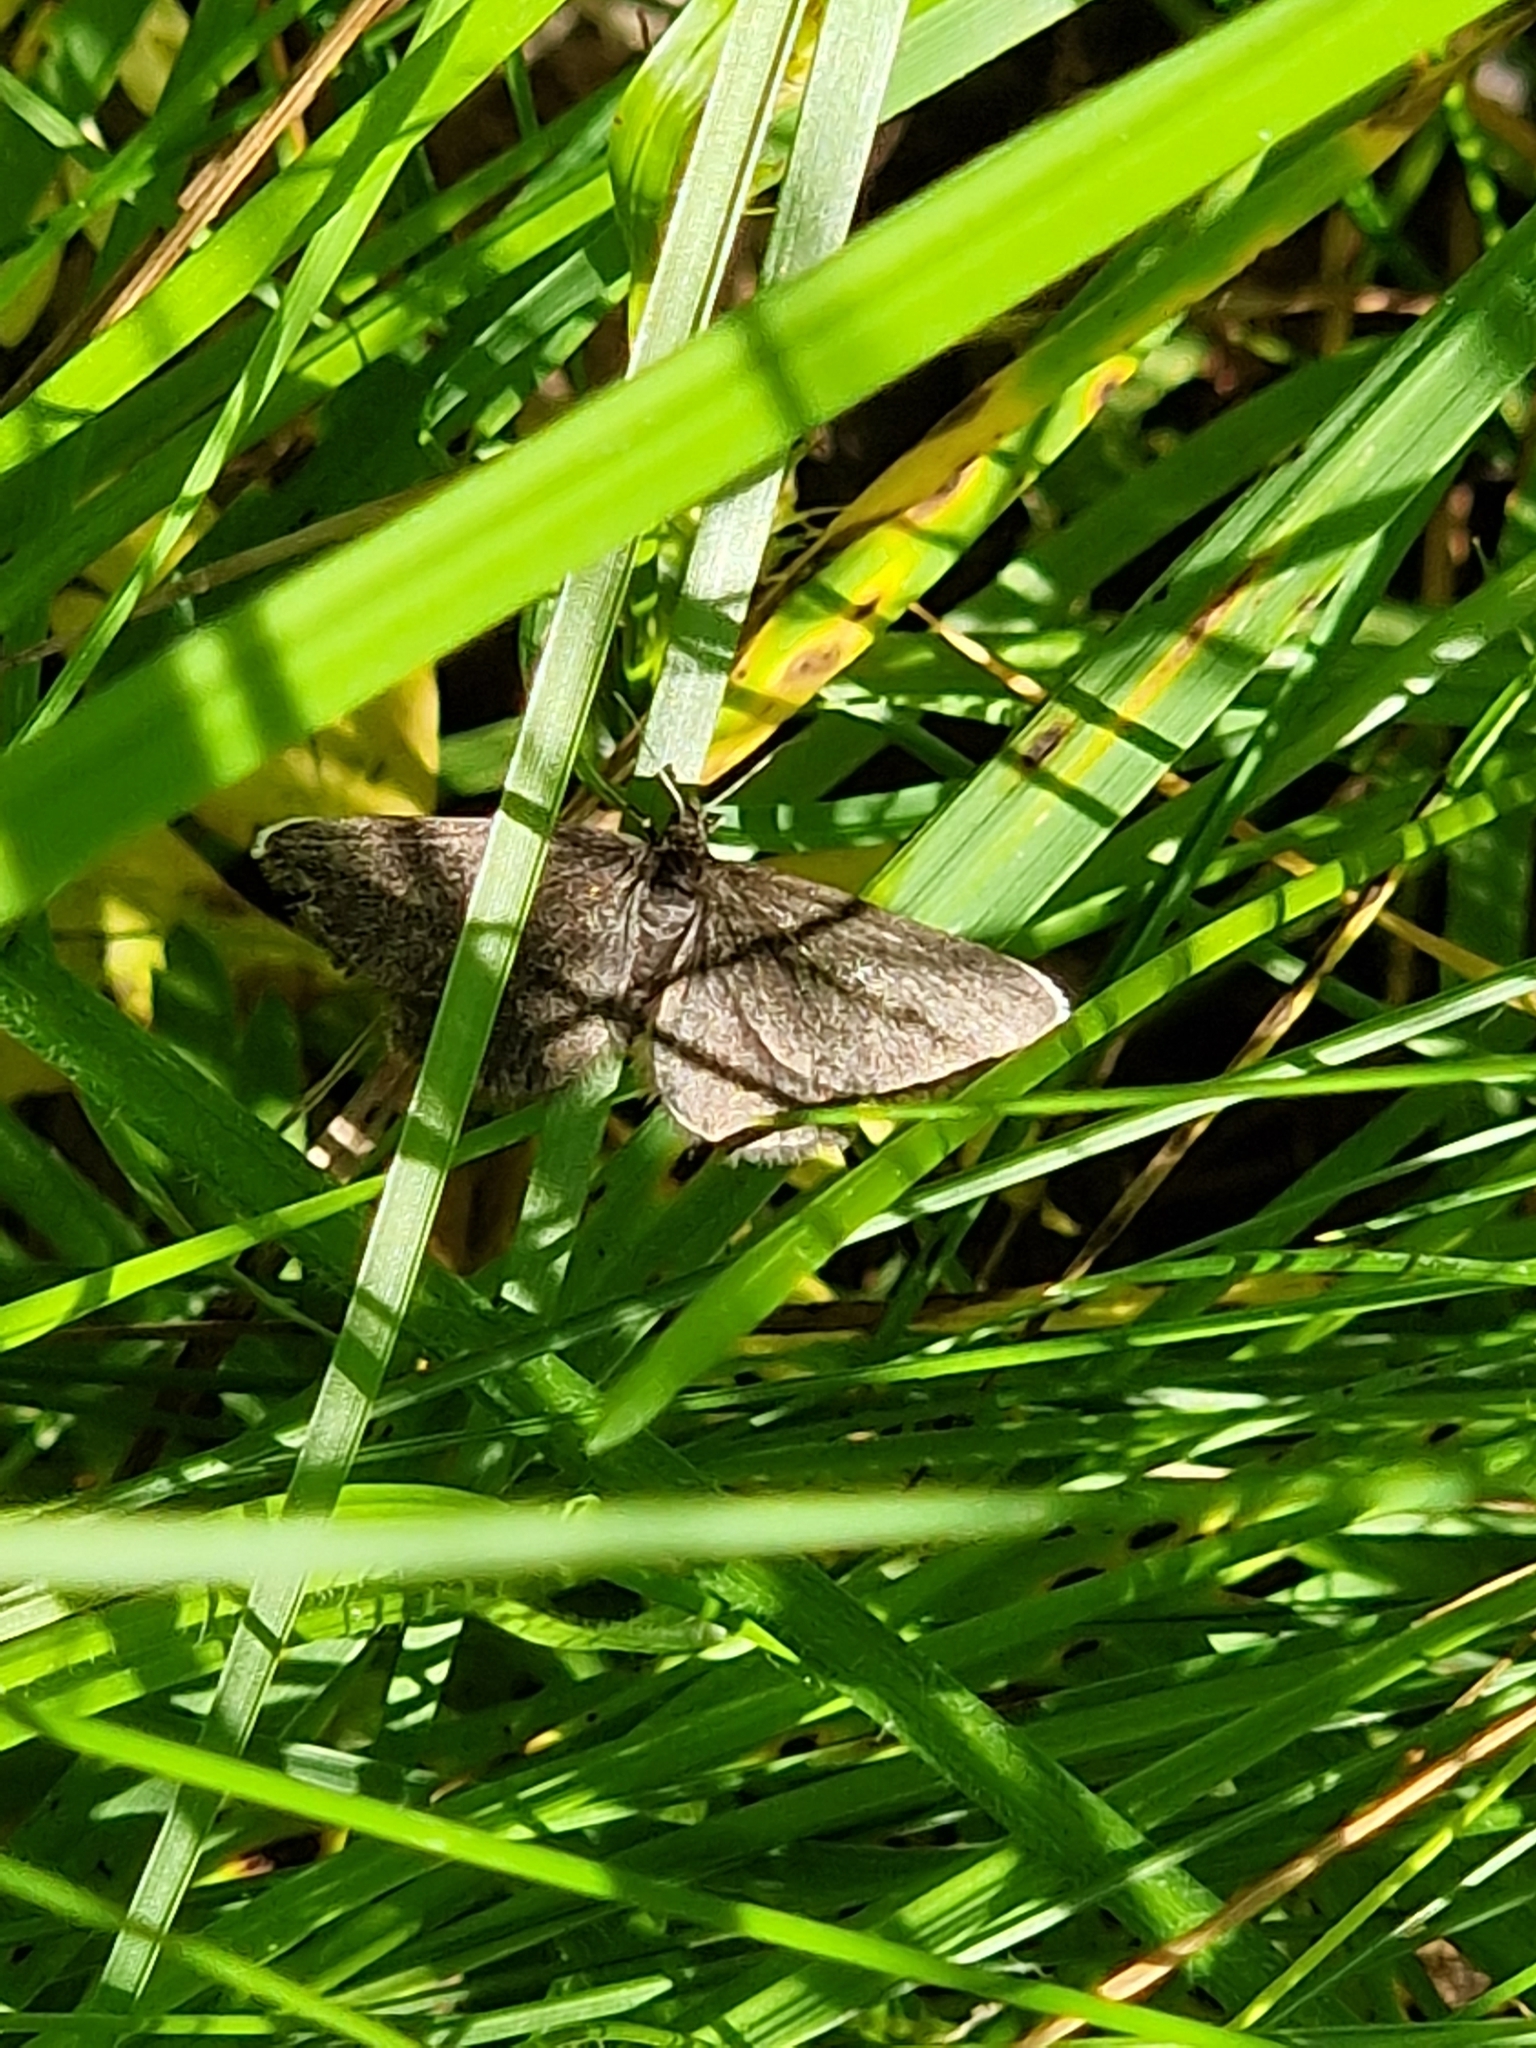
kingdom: Animalia
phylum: Arthropoda
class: Insecta
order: Lepidoptera
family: Geometridae
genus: Odezia
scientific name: Odezia atrata
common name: Chimney sweeper
